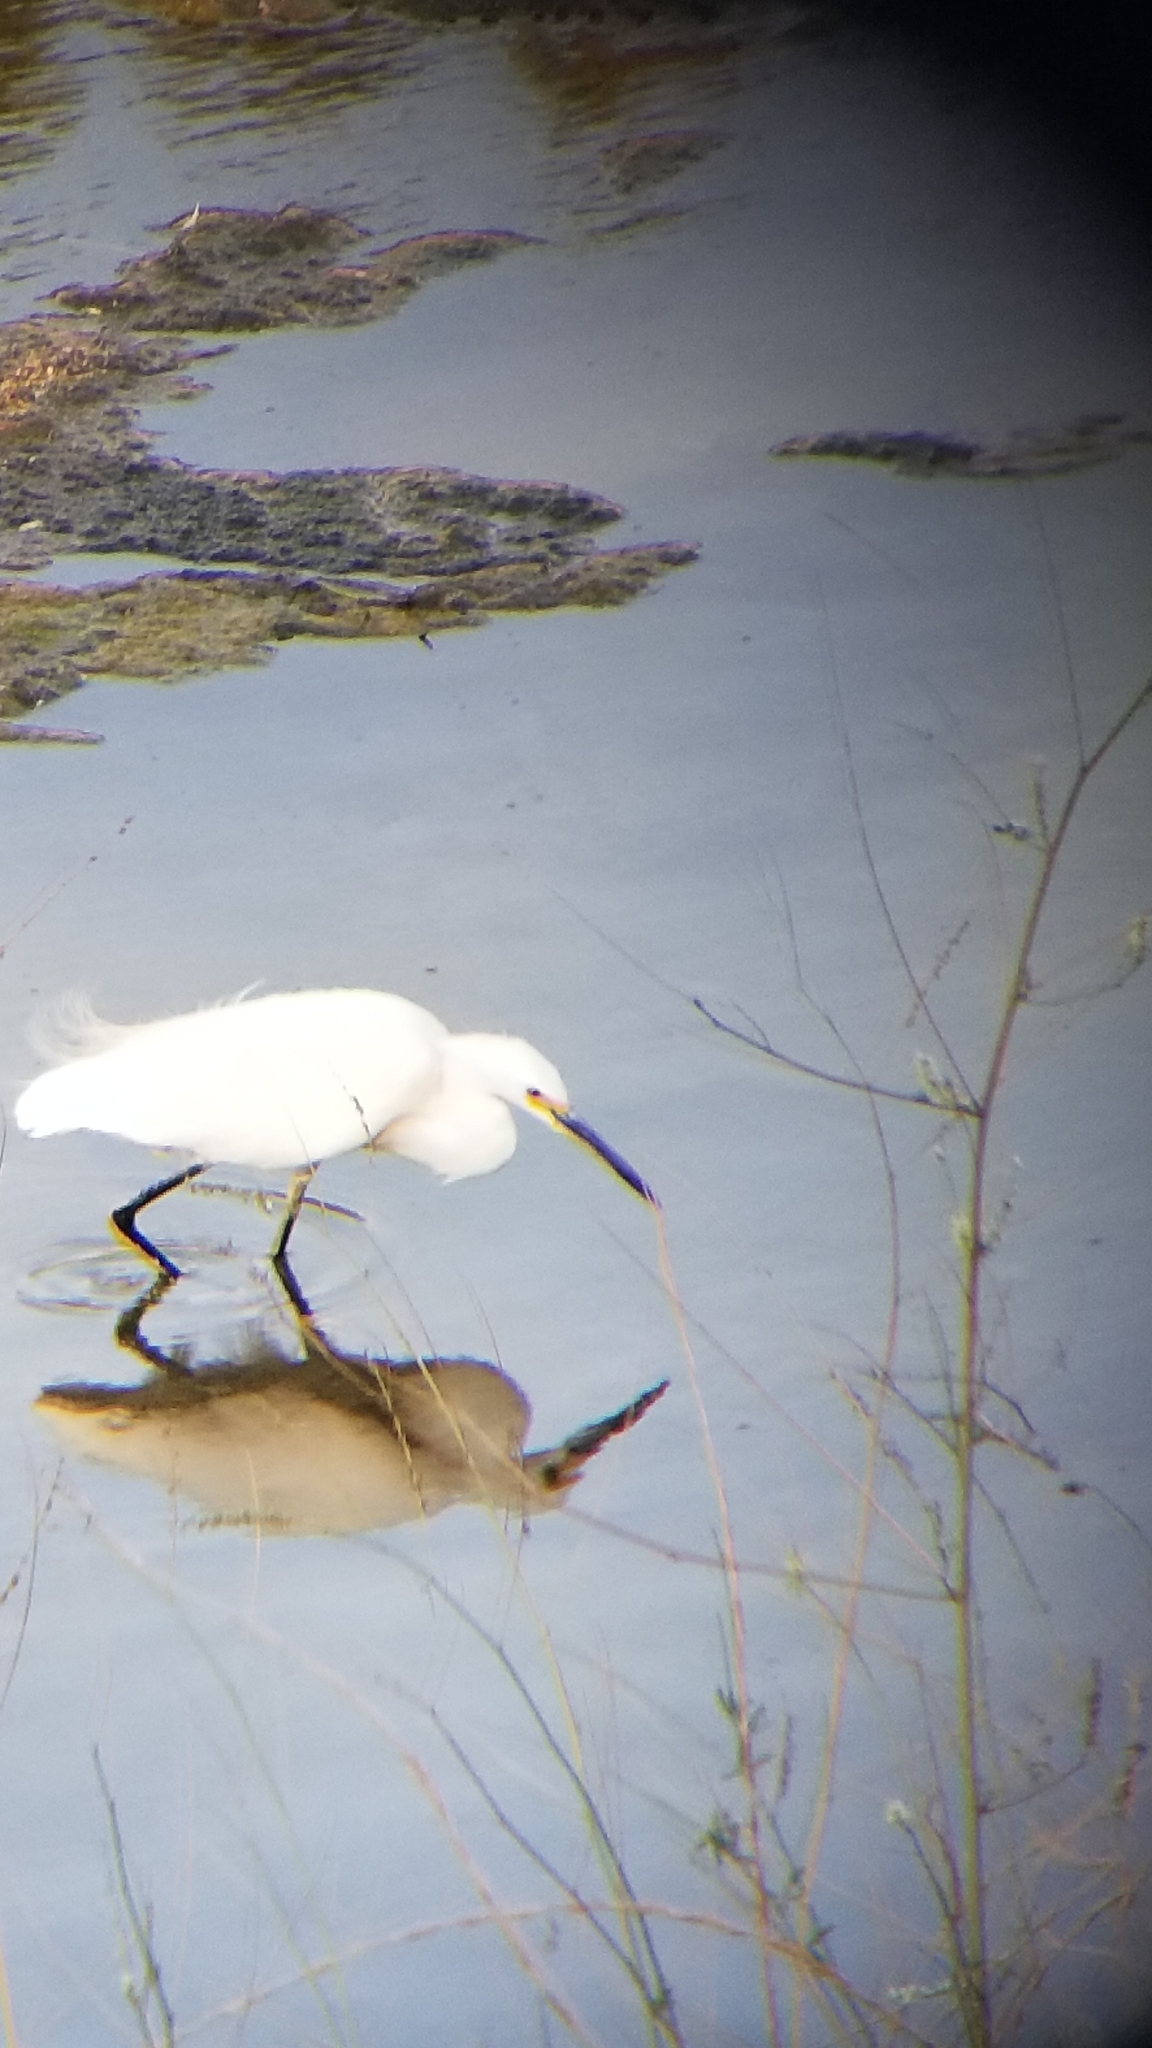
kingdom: Animalia
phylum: Chordata
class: Aves
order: Pelecaniformes
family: Ardeidae
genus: Egretta
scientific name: Egretta thula
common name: Snowy egret
